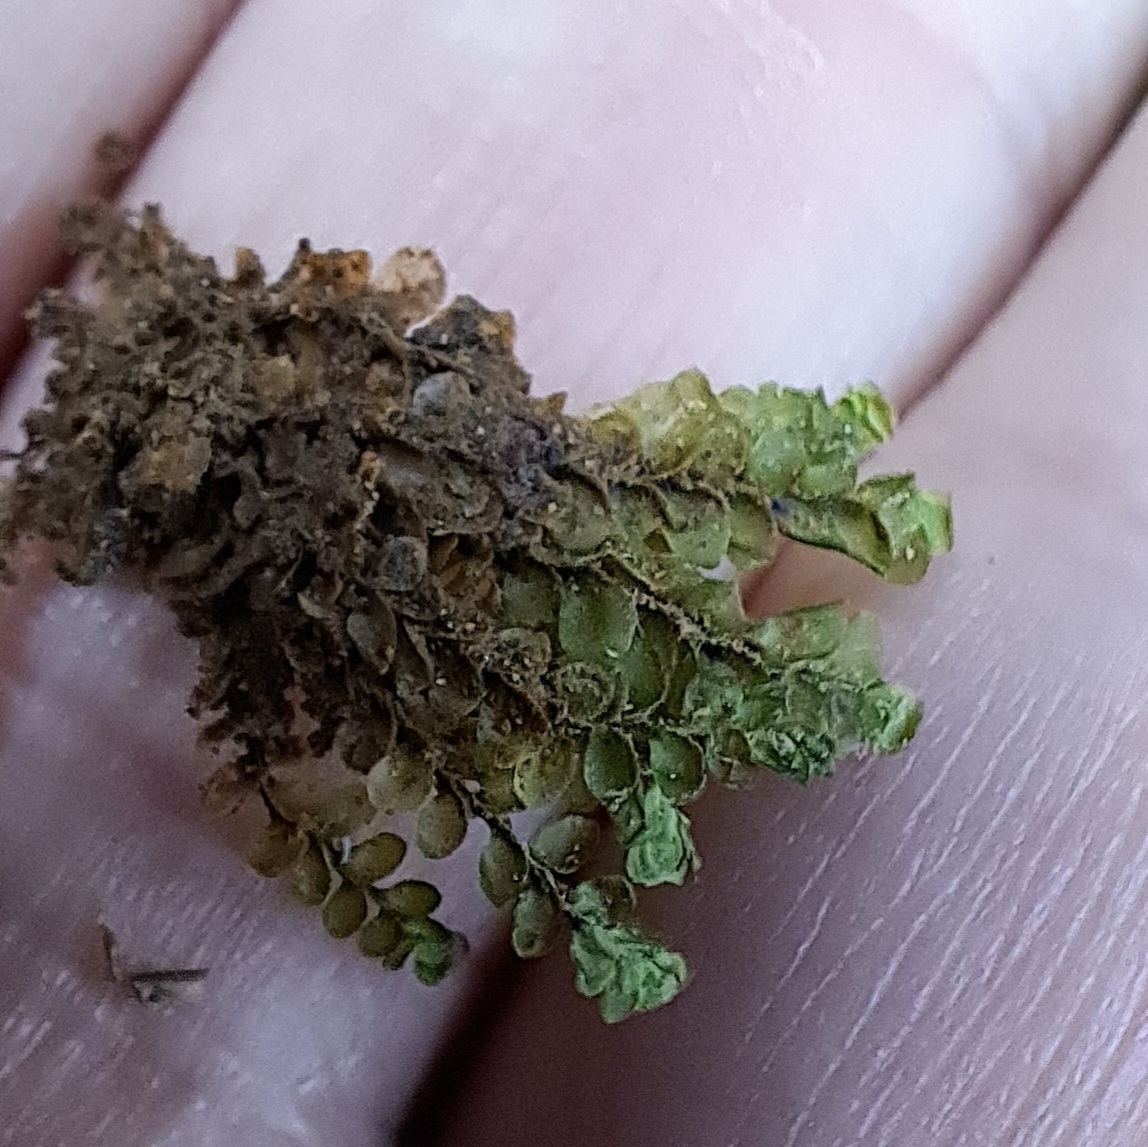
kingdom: Plantae
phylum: Marchantiophyta
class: Jungermanniopsida
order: Jungermanniales
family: Scapaniaceae
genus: Scapania
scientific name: Scapania nemorea
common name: Grove earwort
